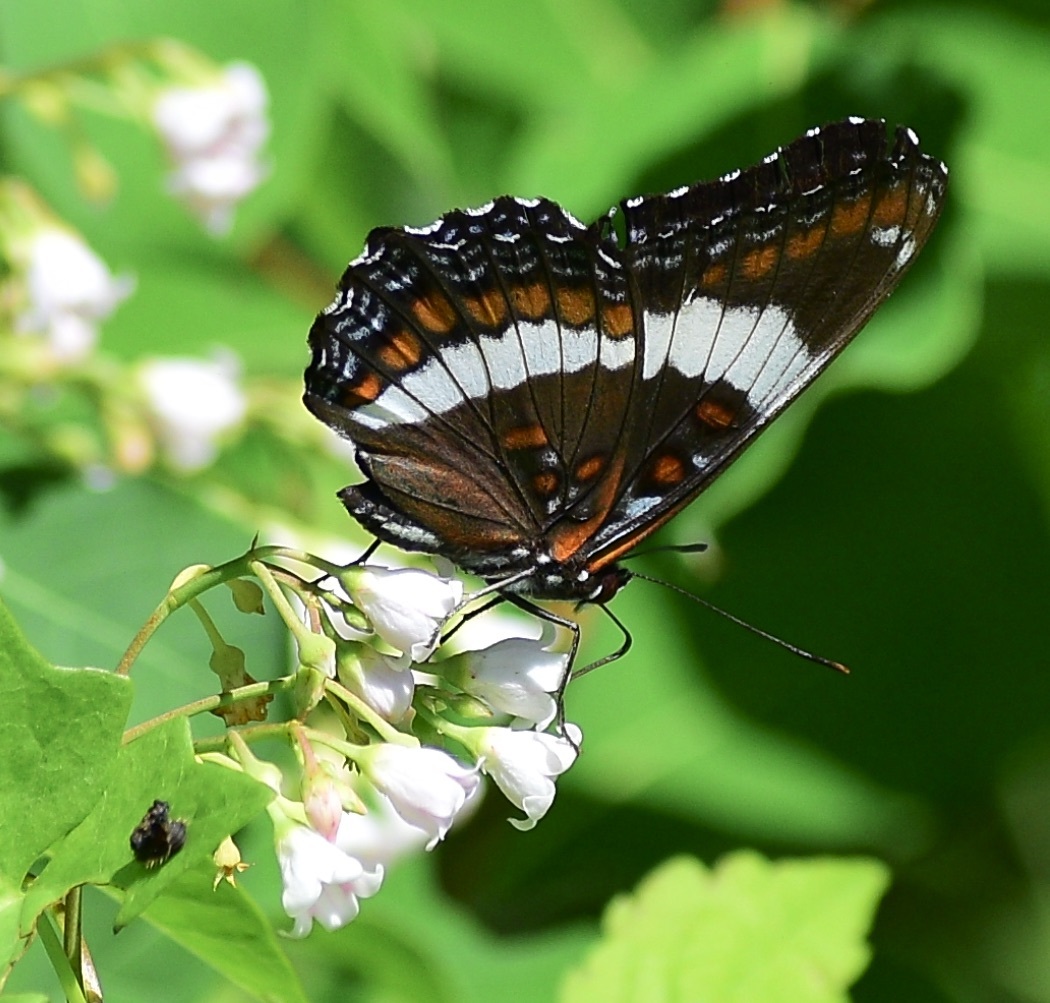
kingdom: Animalia
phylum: Arthropoda
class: Insecta
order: Lepidoptera
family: Nymphalidae
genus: Limenitis
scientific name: Limenitis arthemis
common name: Red-spotted admiral
